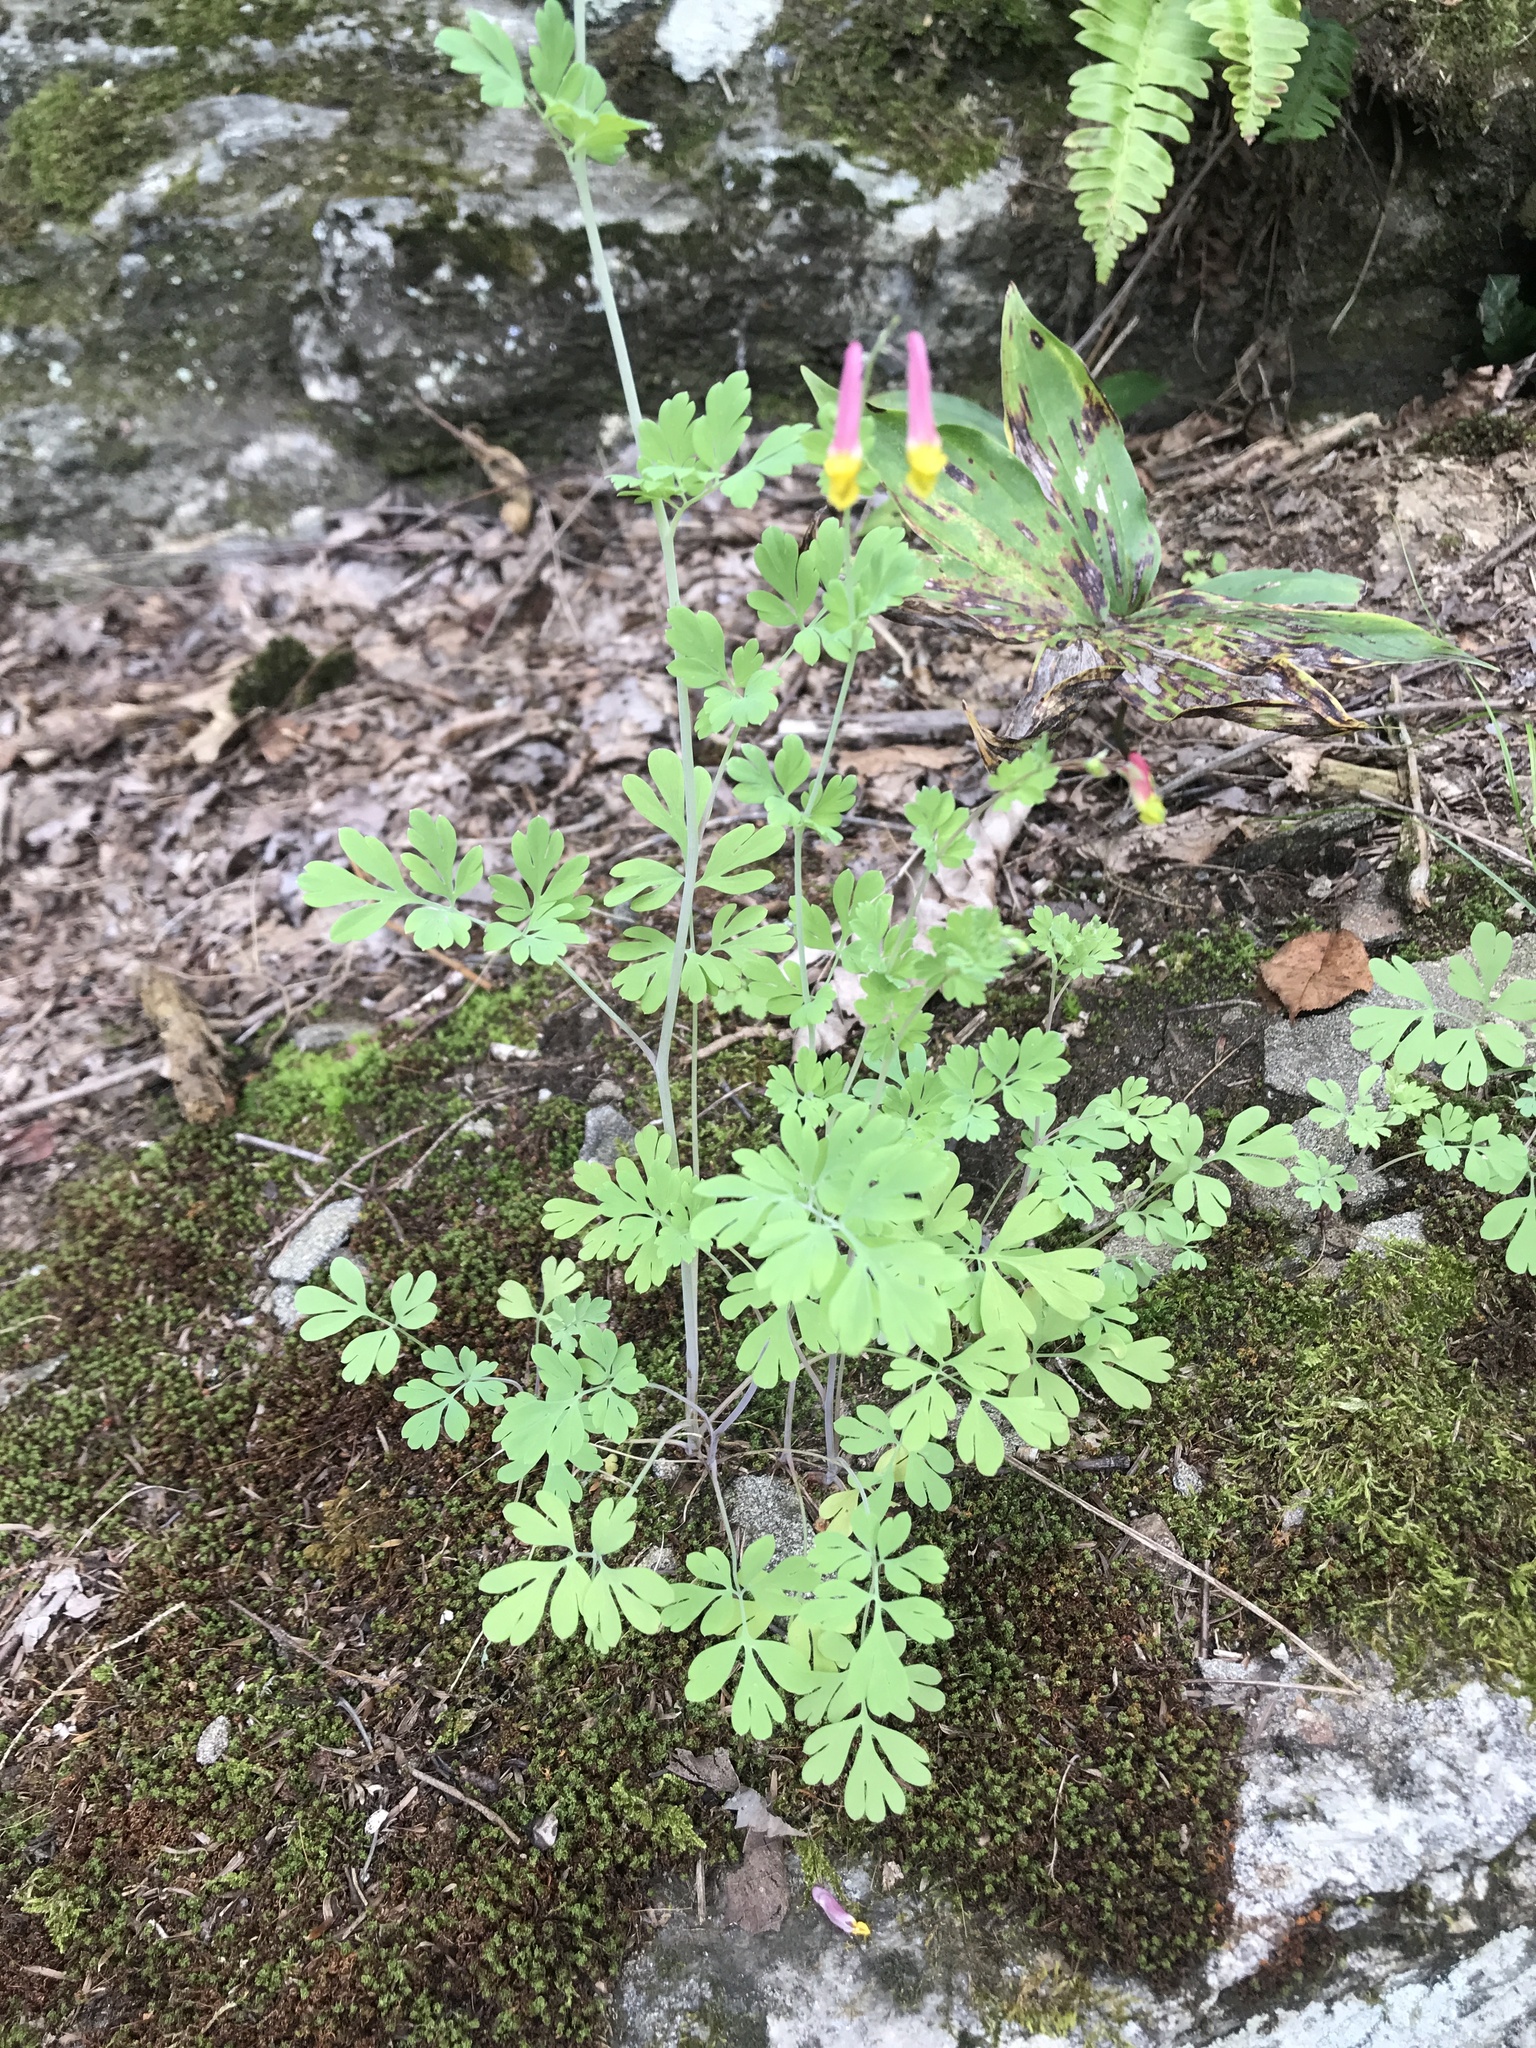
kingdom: Plantae
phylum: Tracheophyta
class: Magnoliopsida
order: Ranunculales
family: Papaveraceae
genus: Capnoides
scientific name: Capnoides sempervirens
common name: Rock harlequin
